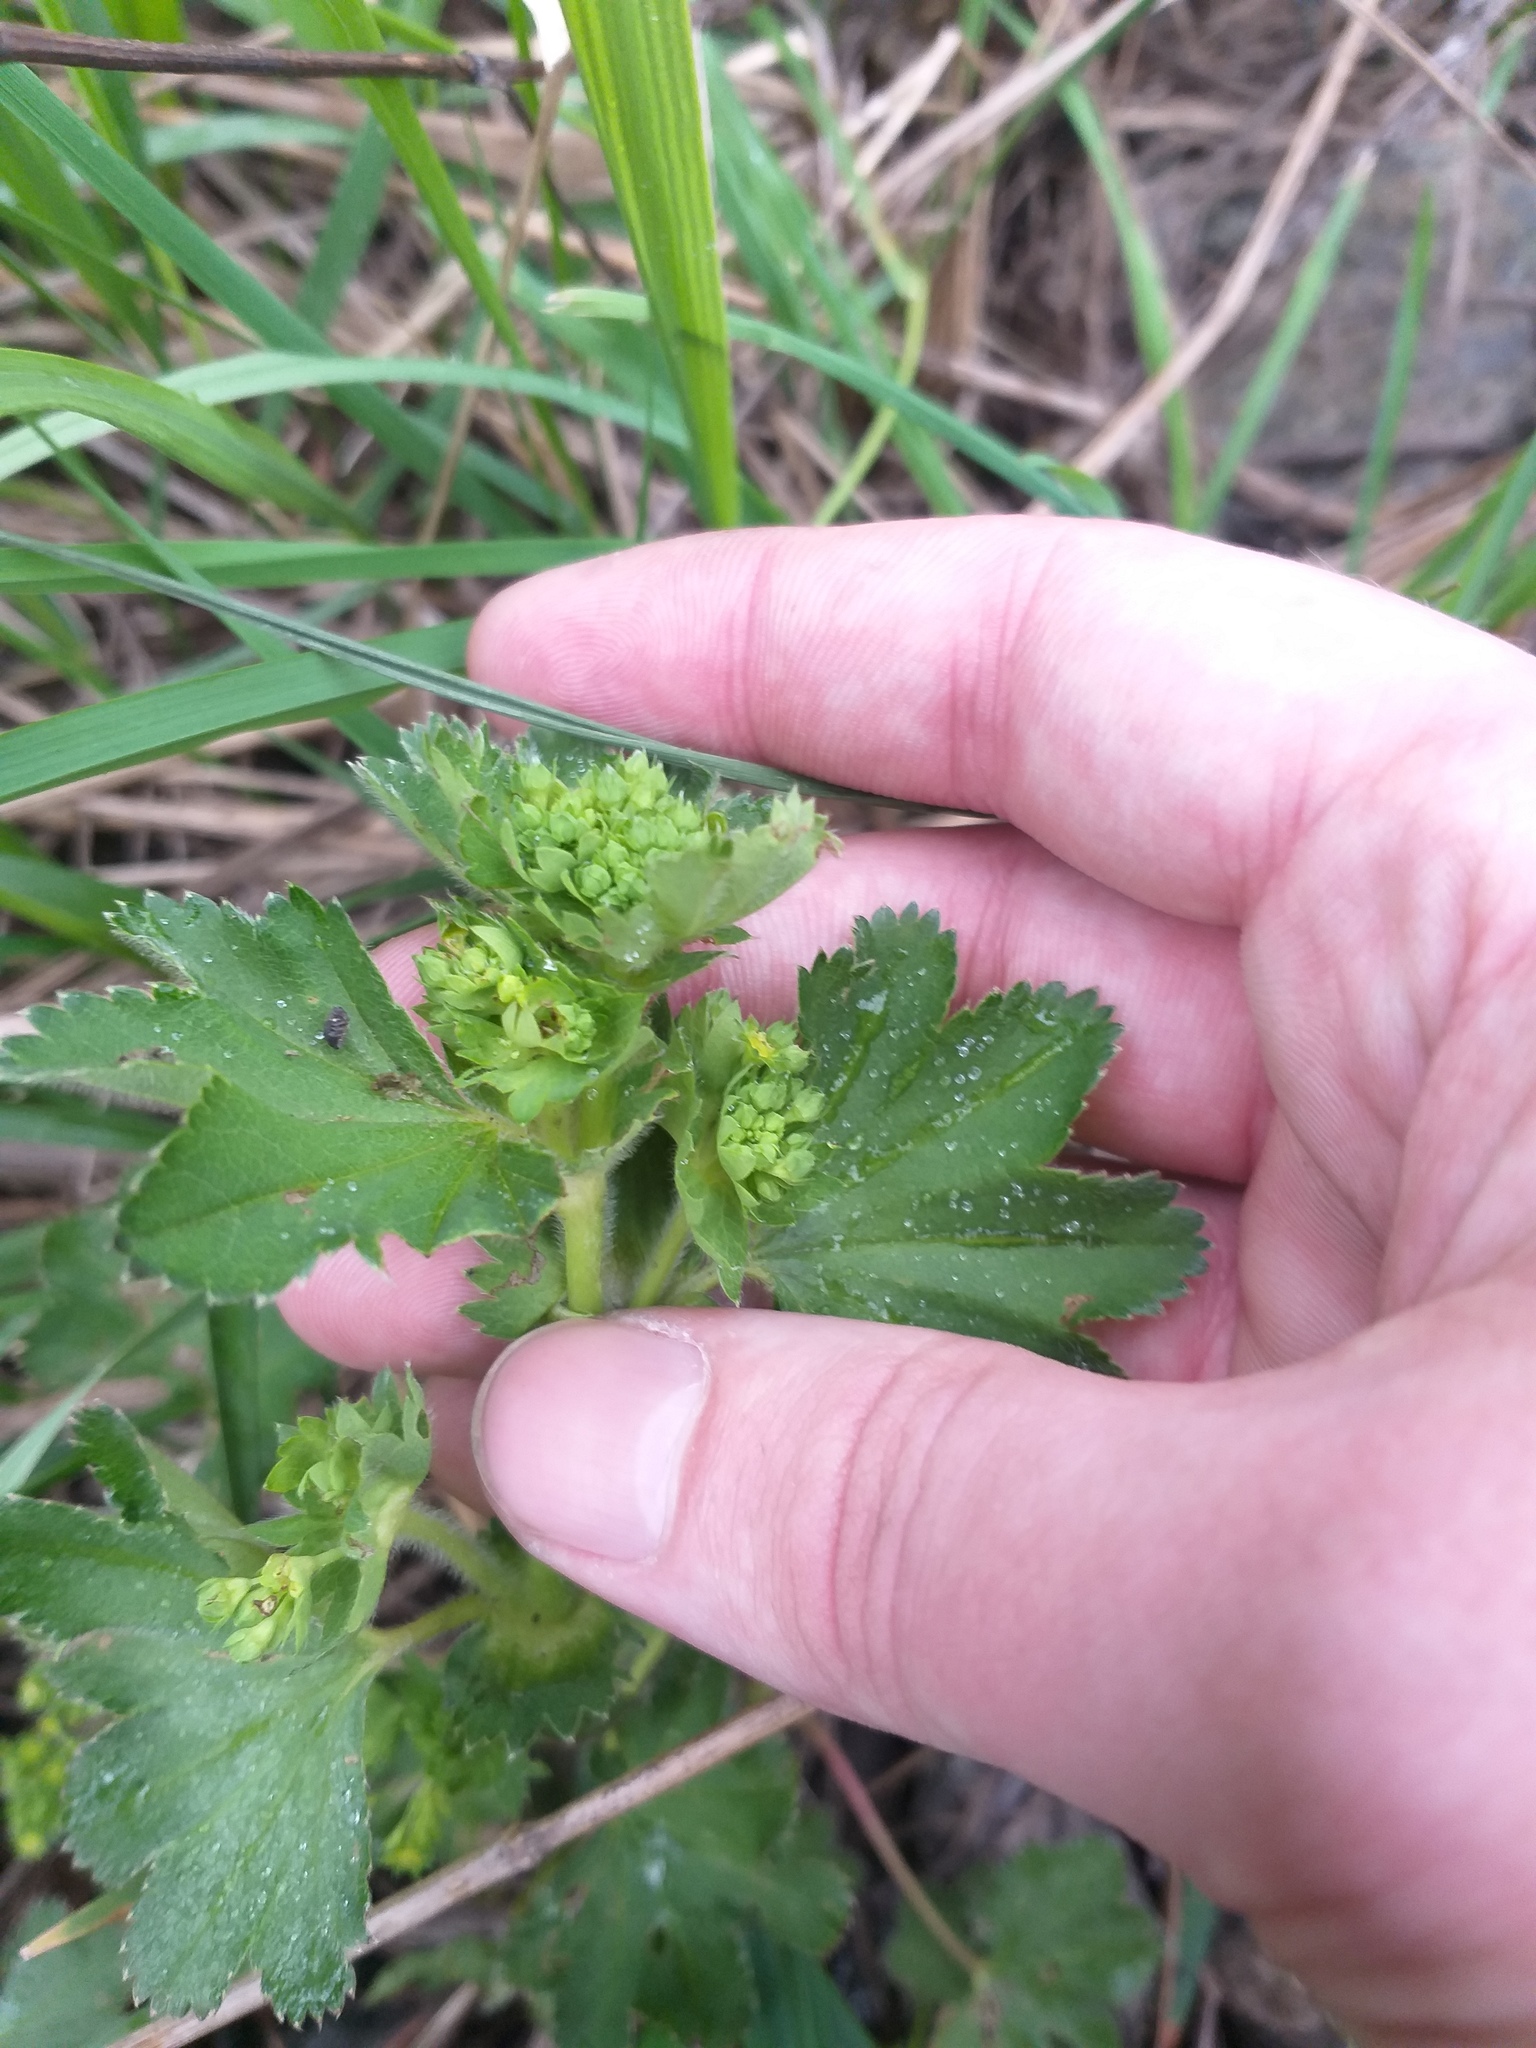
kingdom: Plantae
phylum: Tracheophyta
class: Magnoliopsida
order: Rosales
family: Rosaceae
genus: Alchemilla
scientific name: Alchemilla micans
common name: Gleaming lady's mantle
